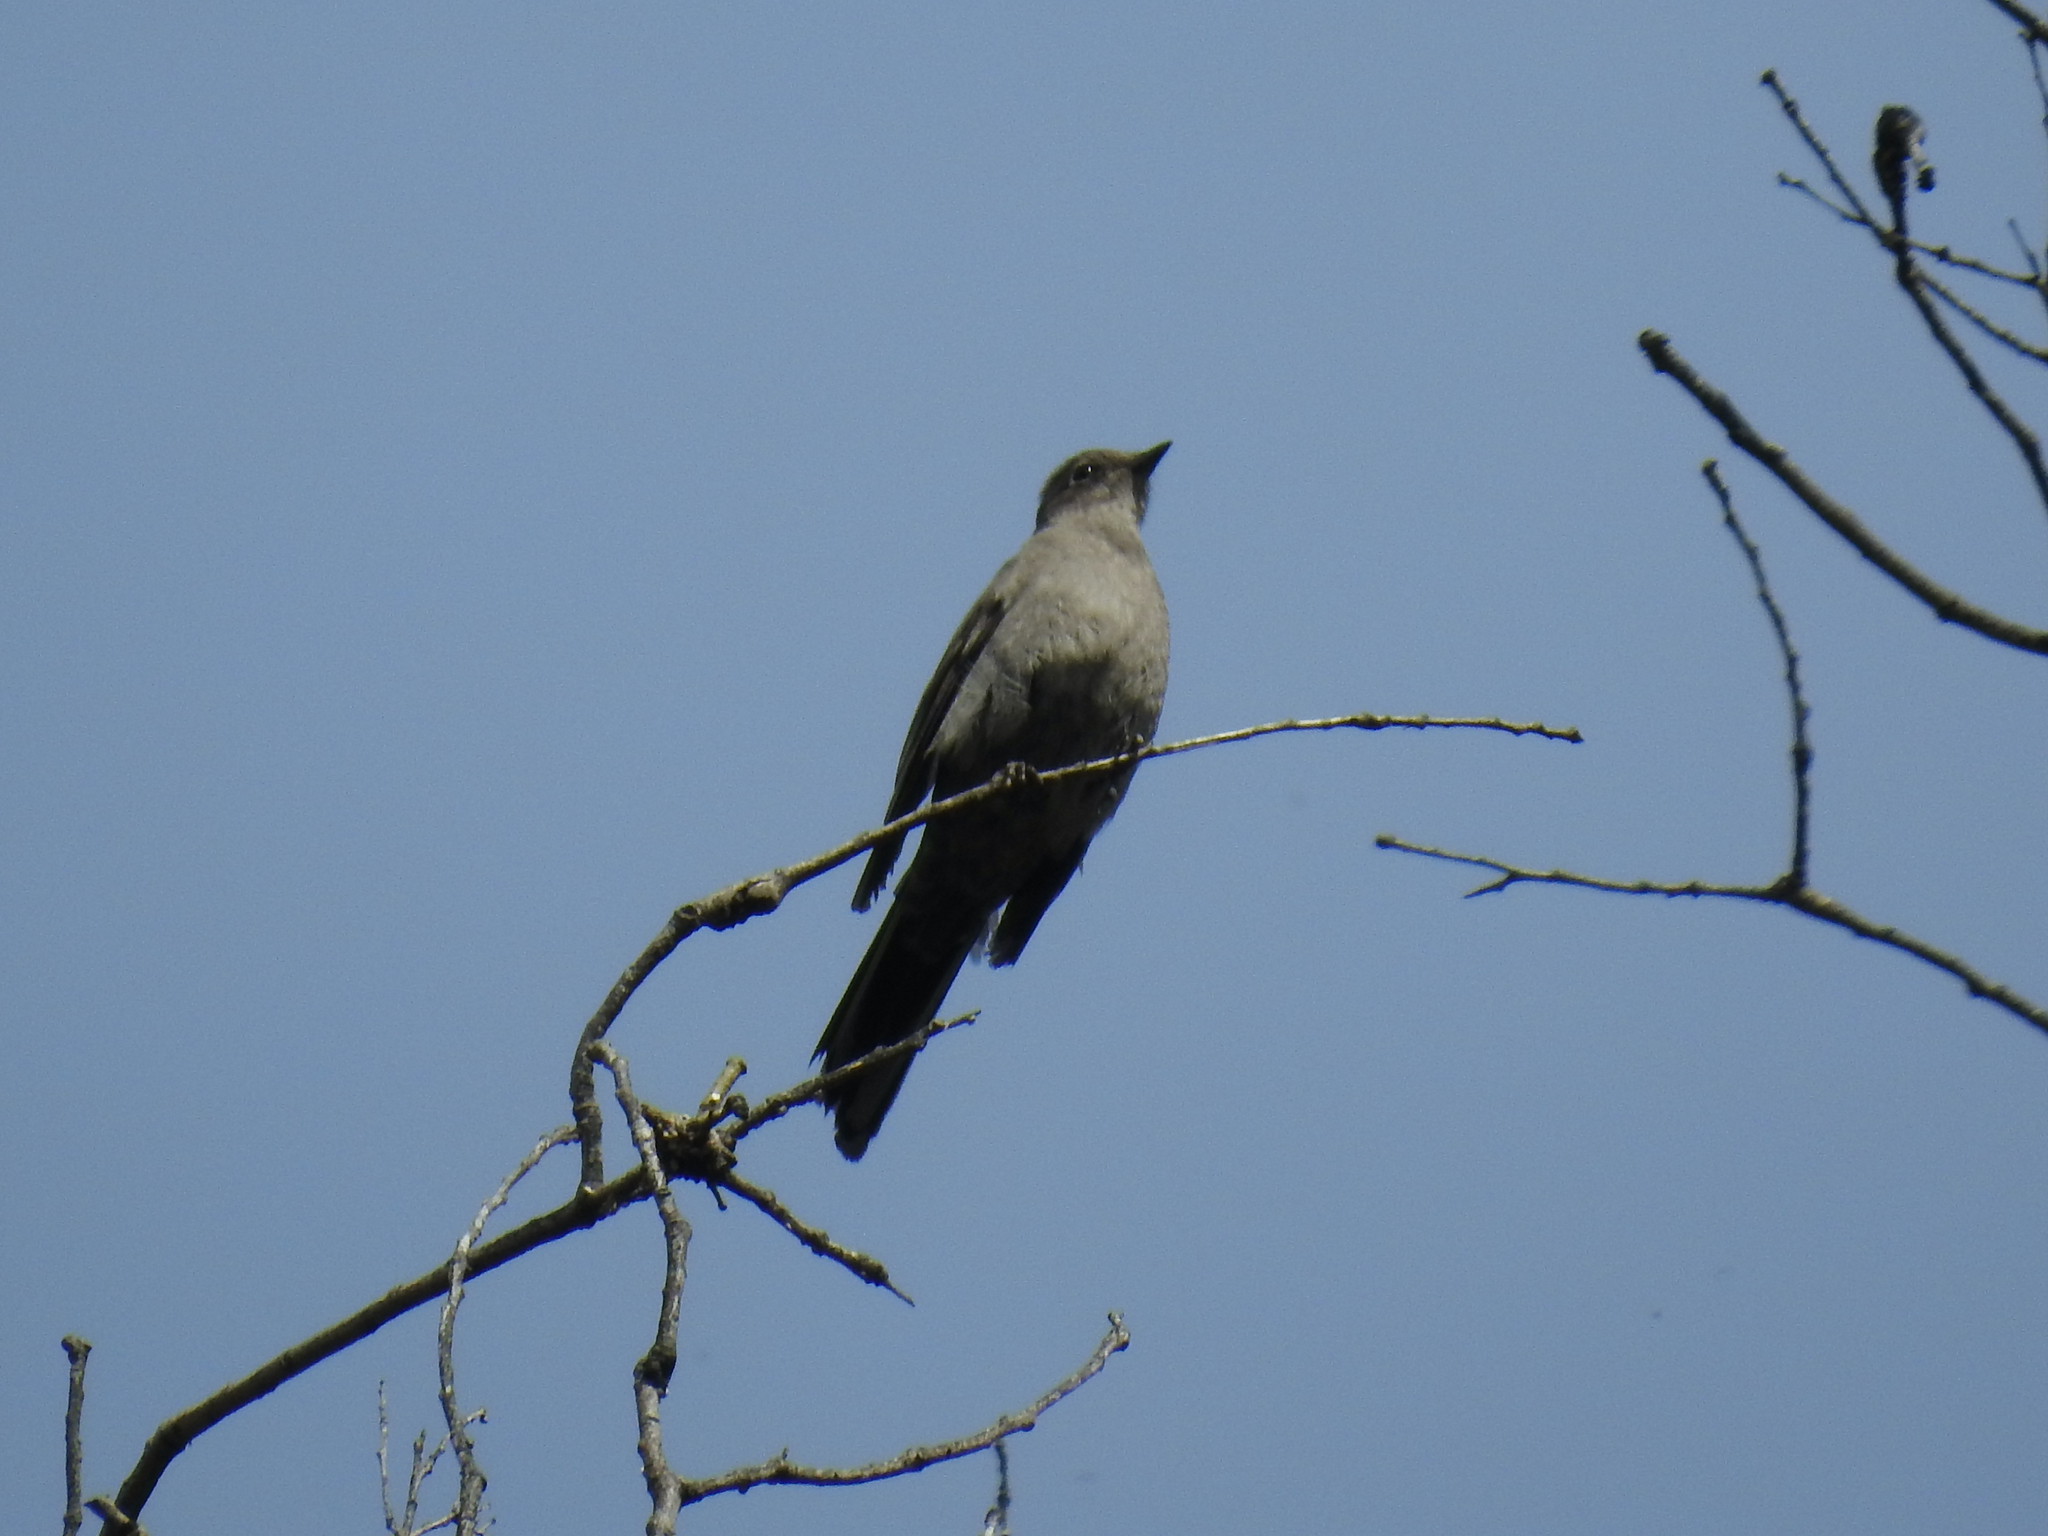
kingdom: Animalia
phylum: Chordata
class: Aves
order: Passeriformes
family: Turdidae
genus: Myadestes
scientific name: Myadestes townsendi
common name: Townsend's solitaire
